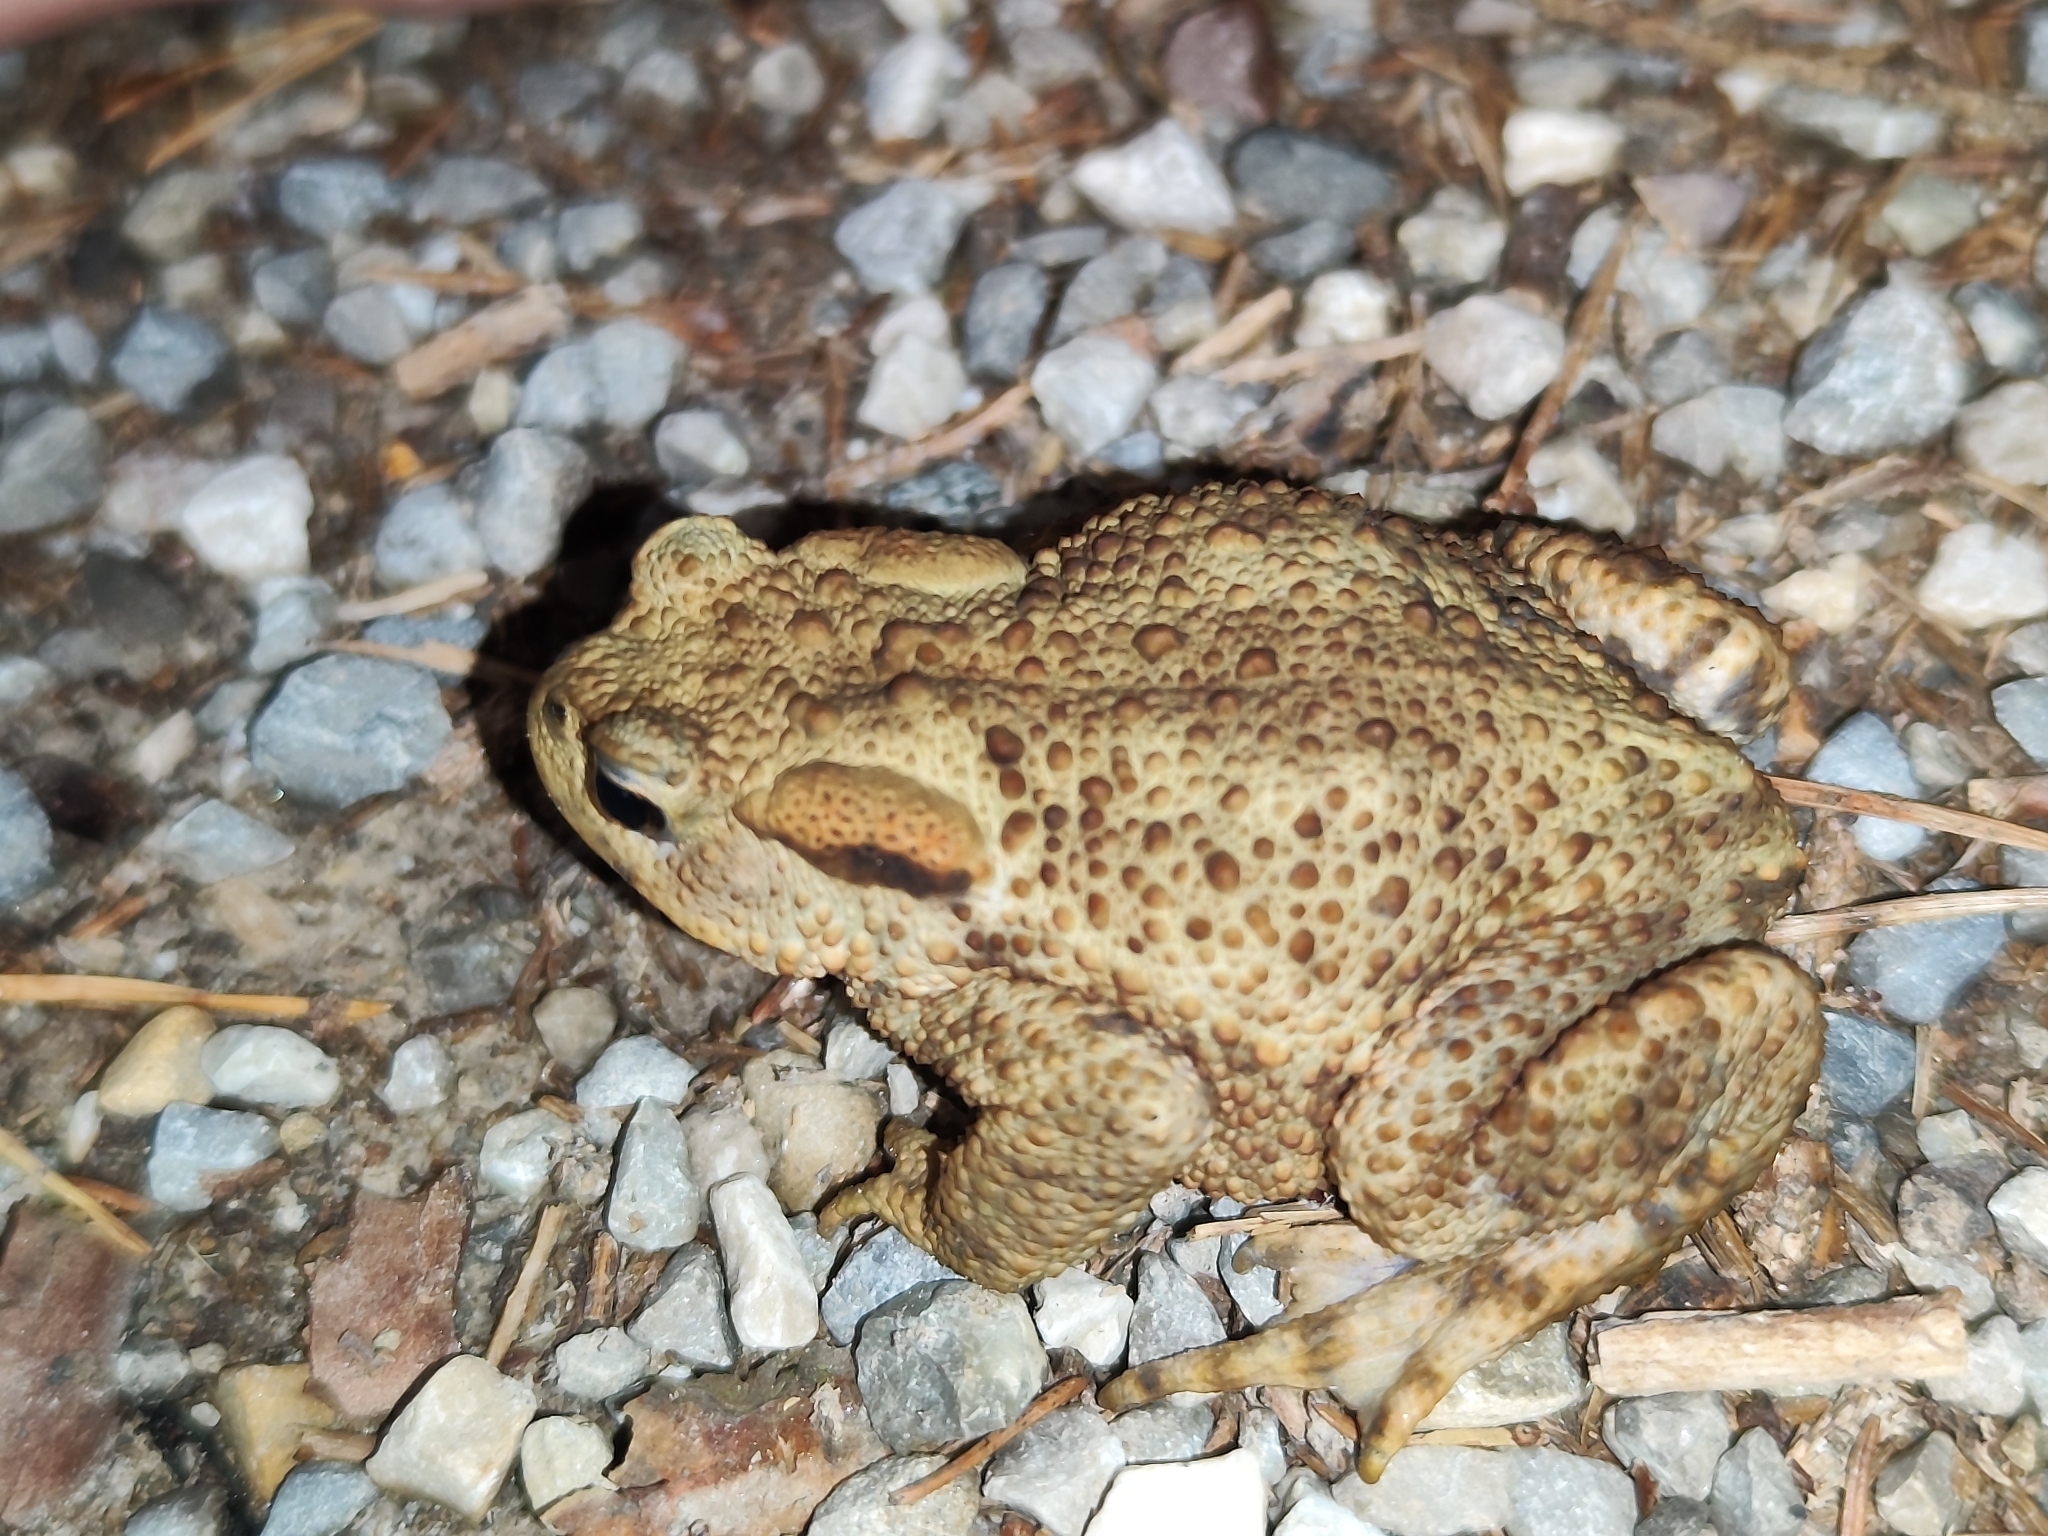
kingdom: Animalia
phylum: Chordata
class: Amphibia
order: Anura
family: Bufonidae
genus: Bufo
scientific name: Bufo bufo
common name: Common toad
